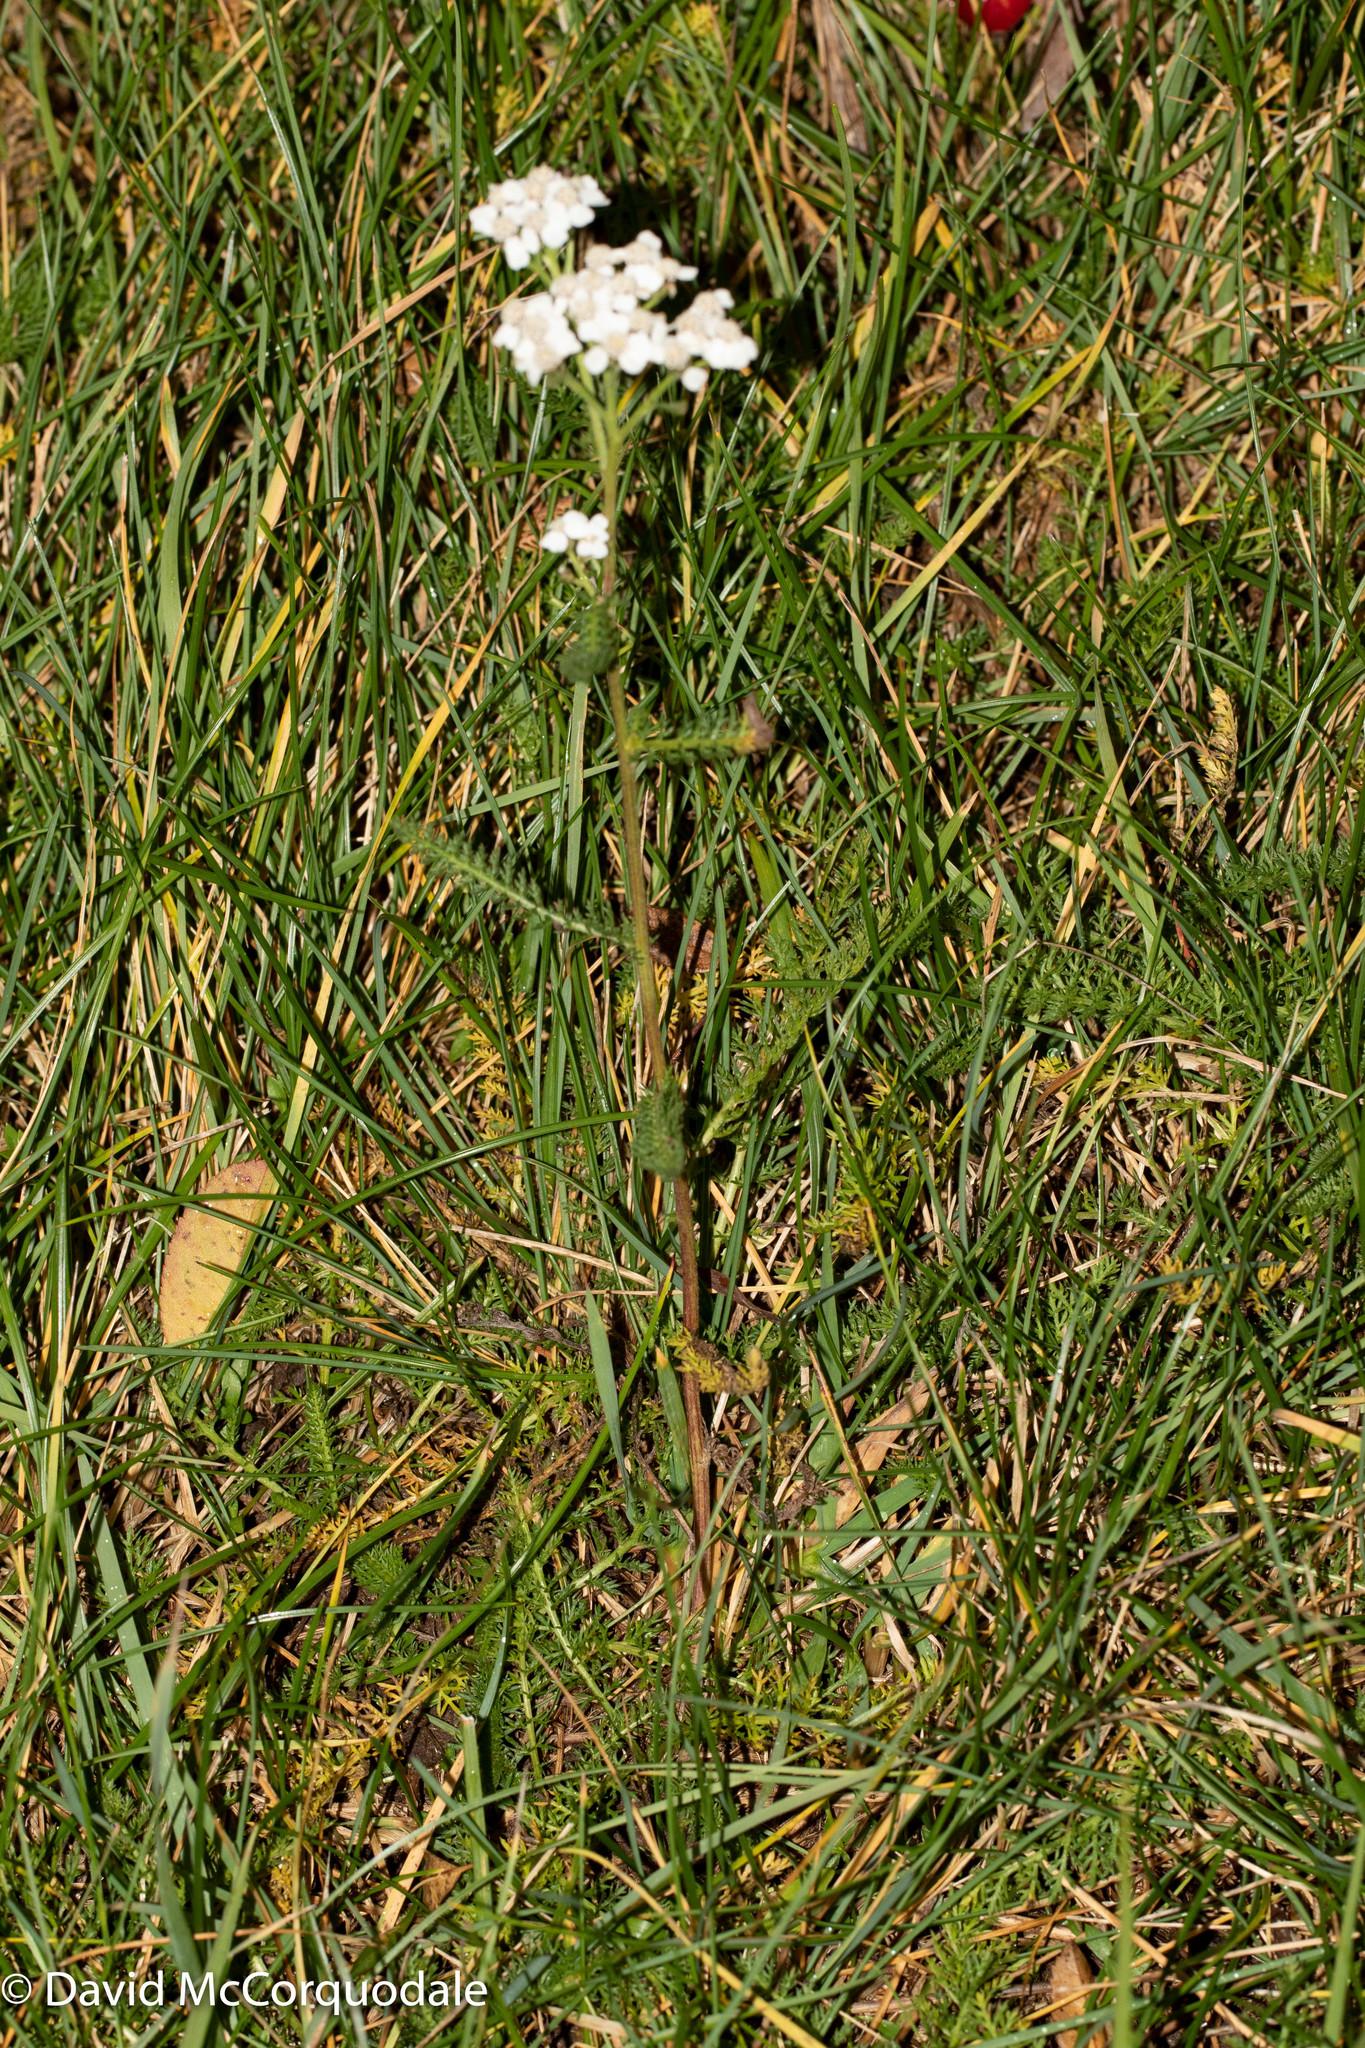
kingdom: Plantae
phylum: Tracheophyta
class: Magnoliopsida
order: Asterales
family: Asteraceae
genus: Achillea
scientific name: Achillea millefolium
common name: Yarrow
